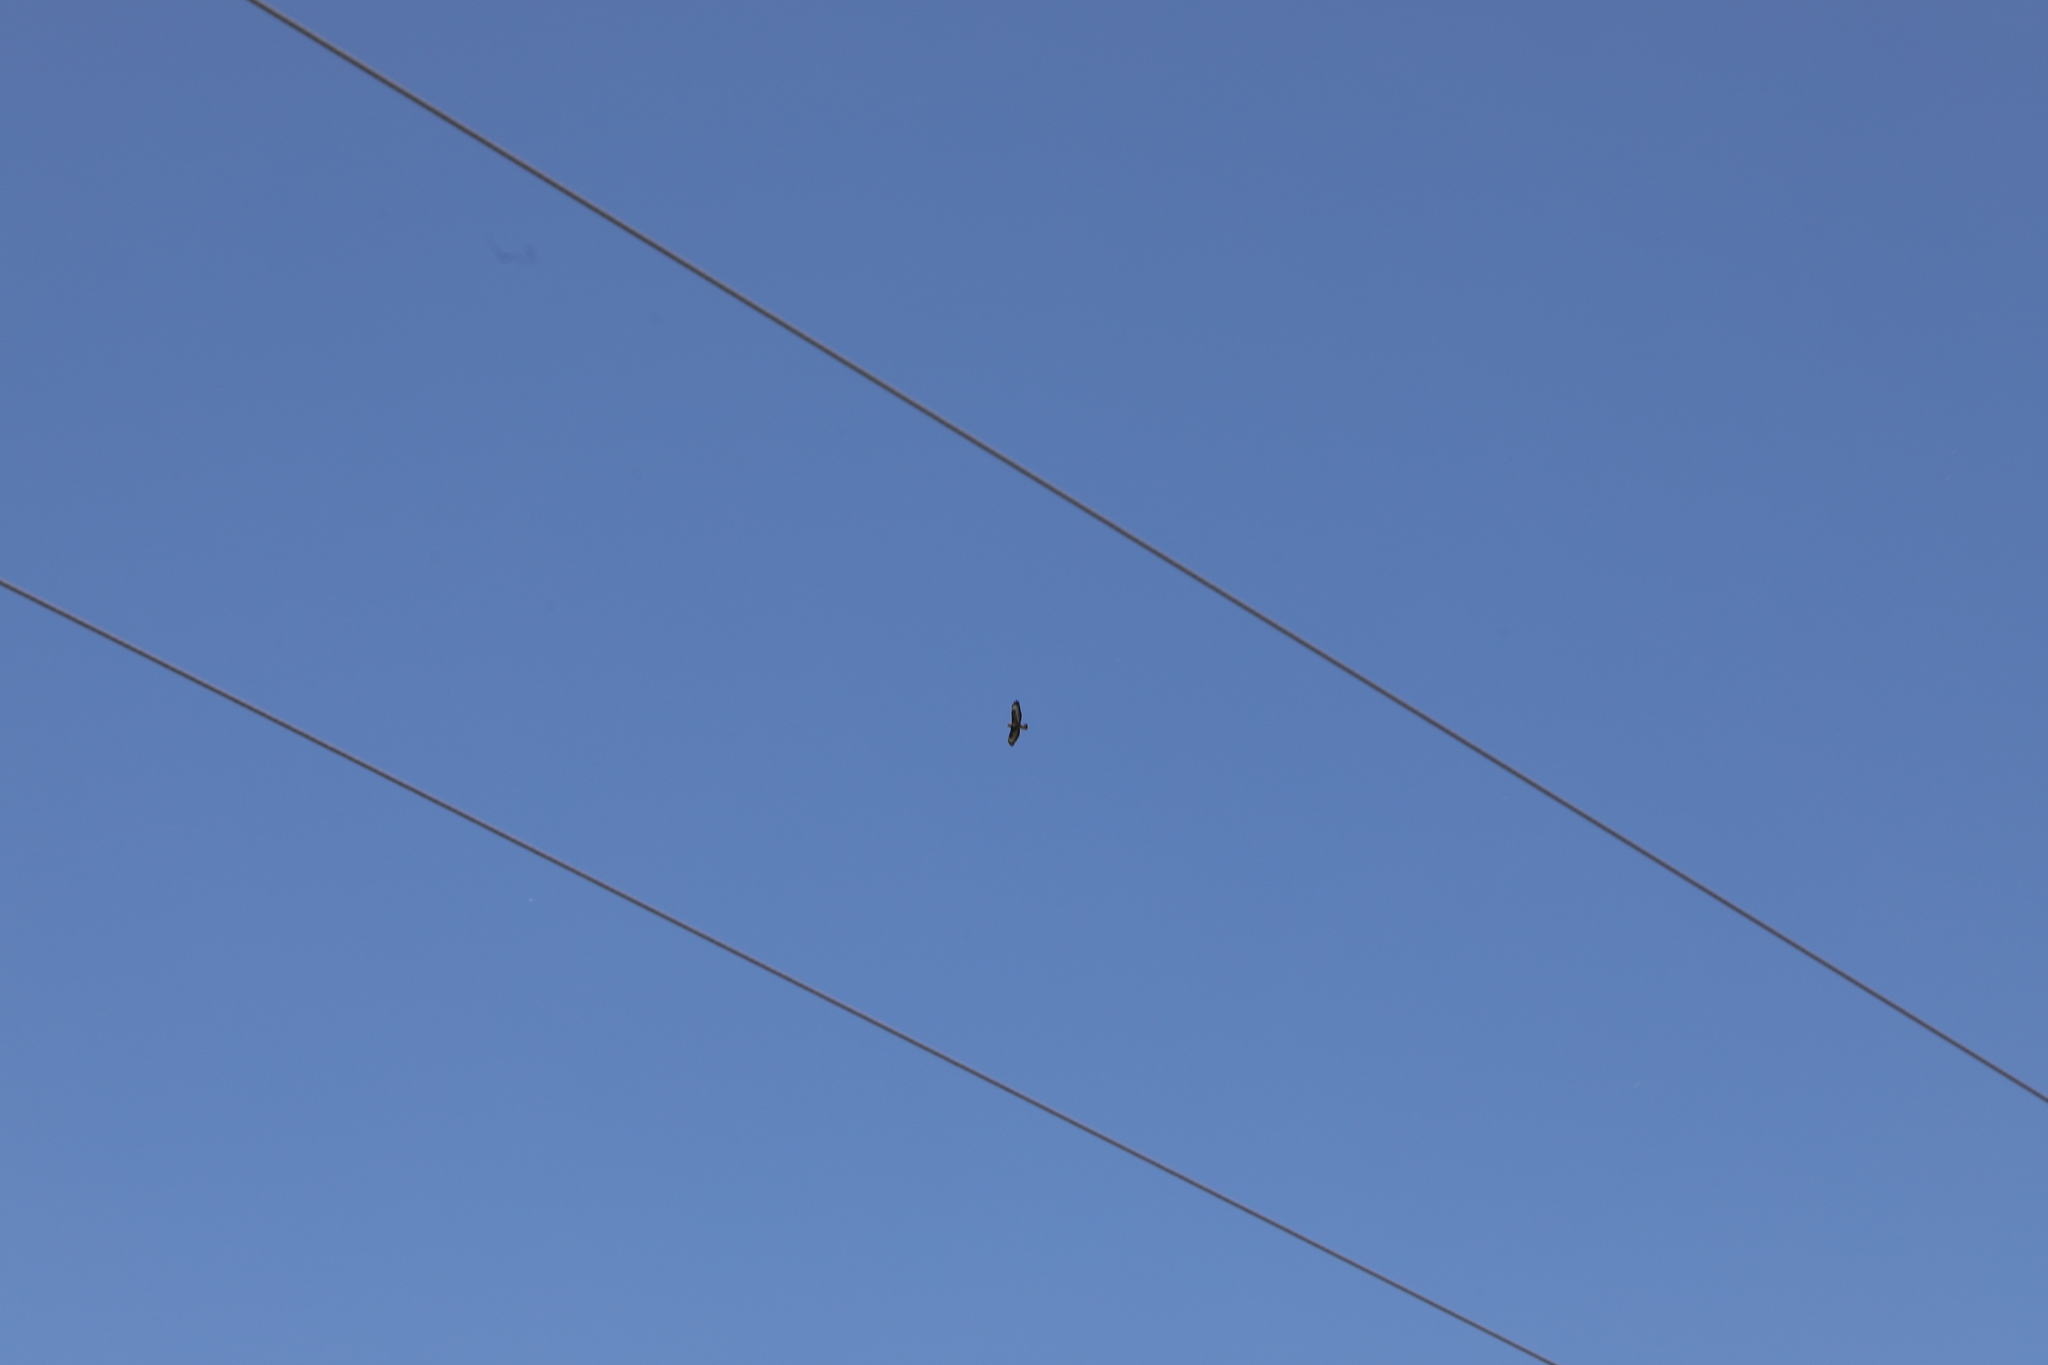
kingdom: Animalia
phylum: Chordata
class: Aves
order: Accipitriformes
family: Accipitridae
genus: Buteo
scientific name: Buteo buteo
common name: Common buzzard
